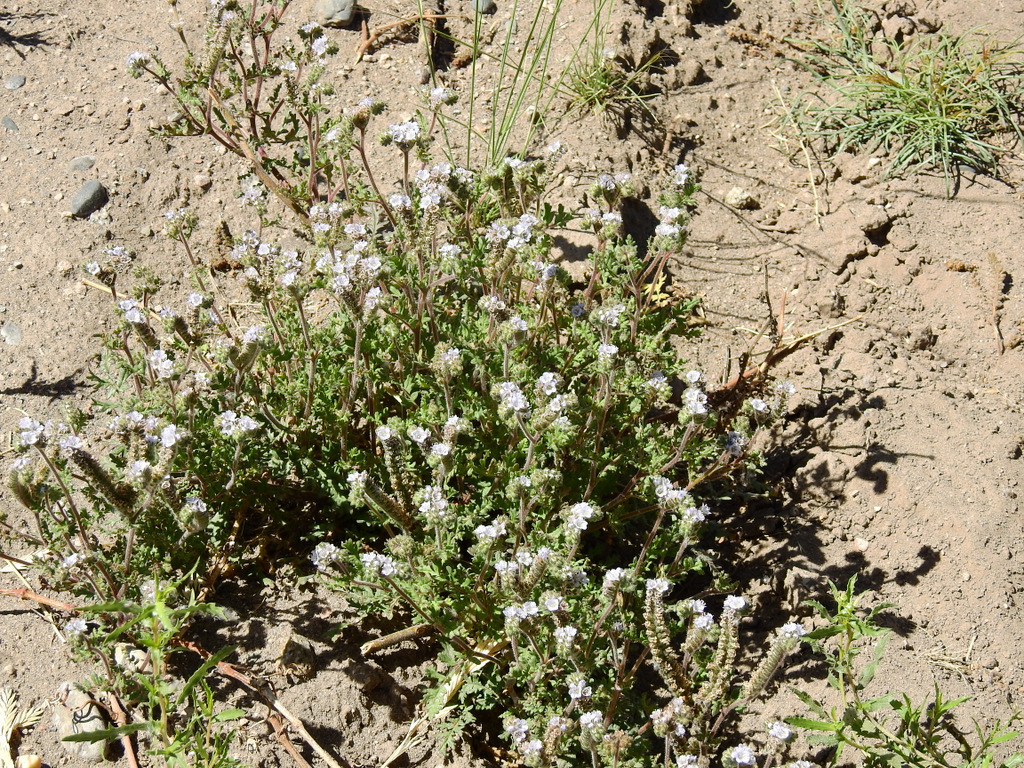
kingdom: Plantae
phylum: Tracheophyta
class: Magnoliopsida
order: Boraginales
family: Hydrophyllaceae
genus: Phacelia
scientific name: Phacelia artemisioides
